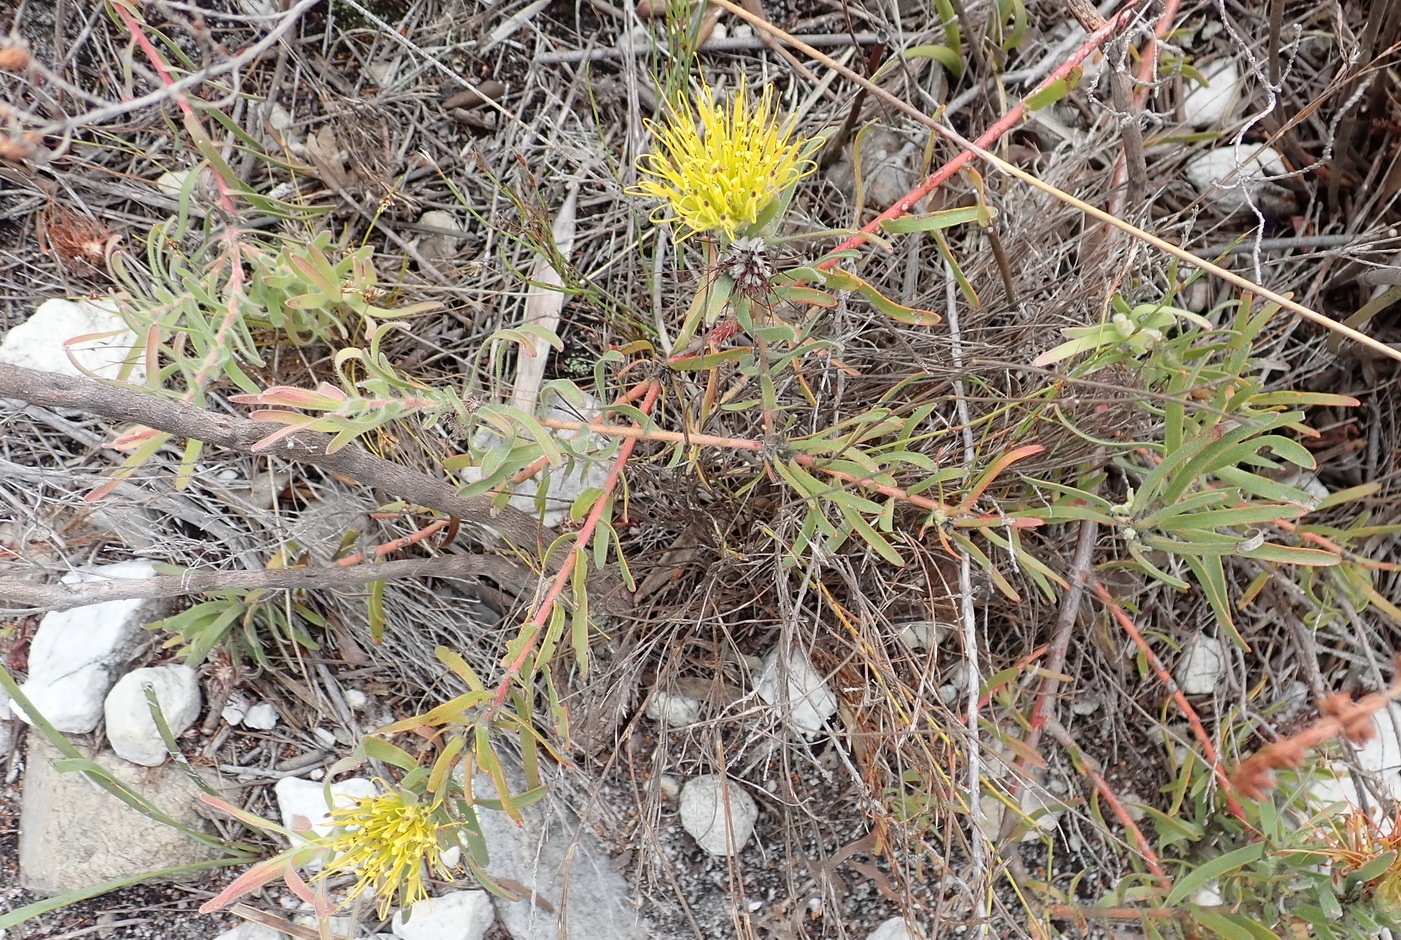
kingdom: Plantae
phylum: Tracheophyta
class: Magnoliopsida
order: Proteales
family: Proteaceae
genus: Leucospermum
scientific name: Leucospermum gracile
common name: Hermanus pincushion
